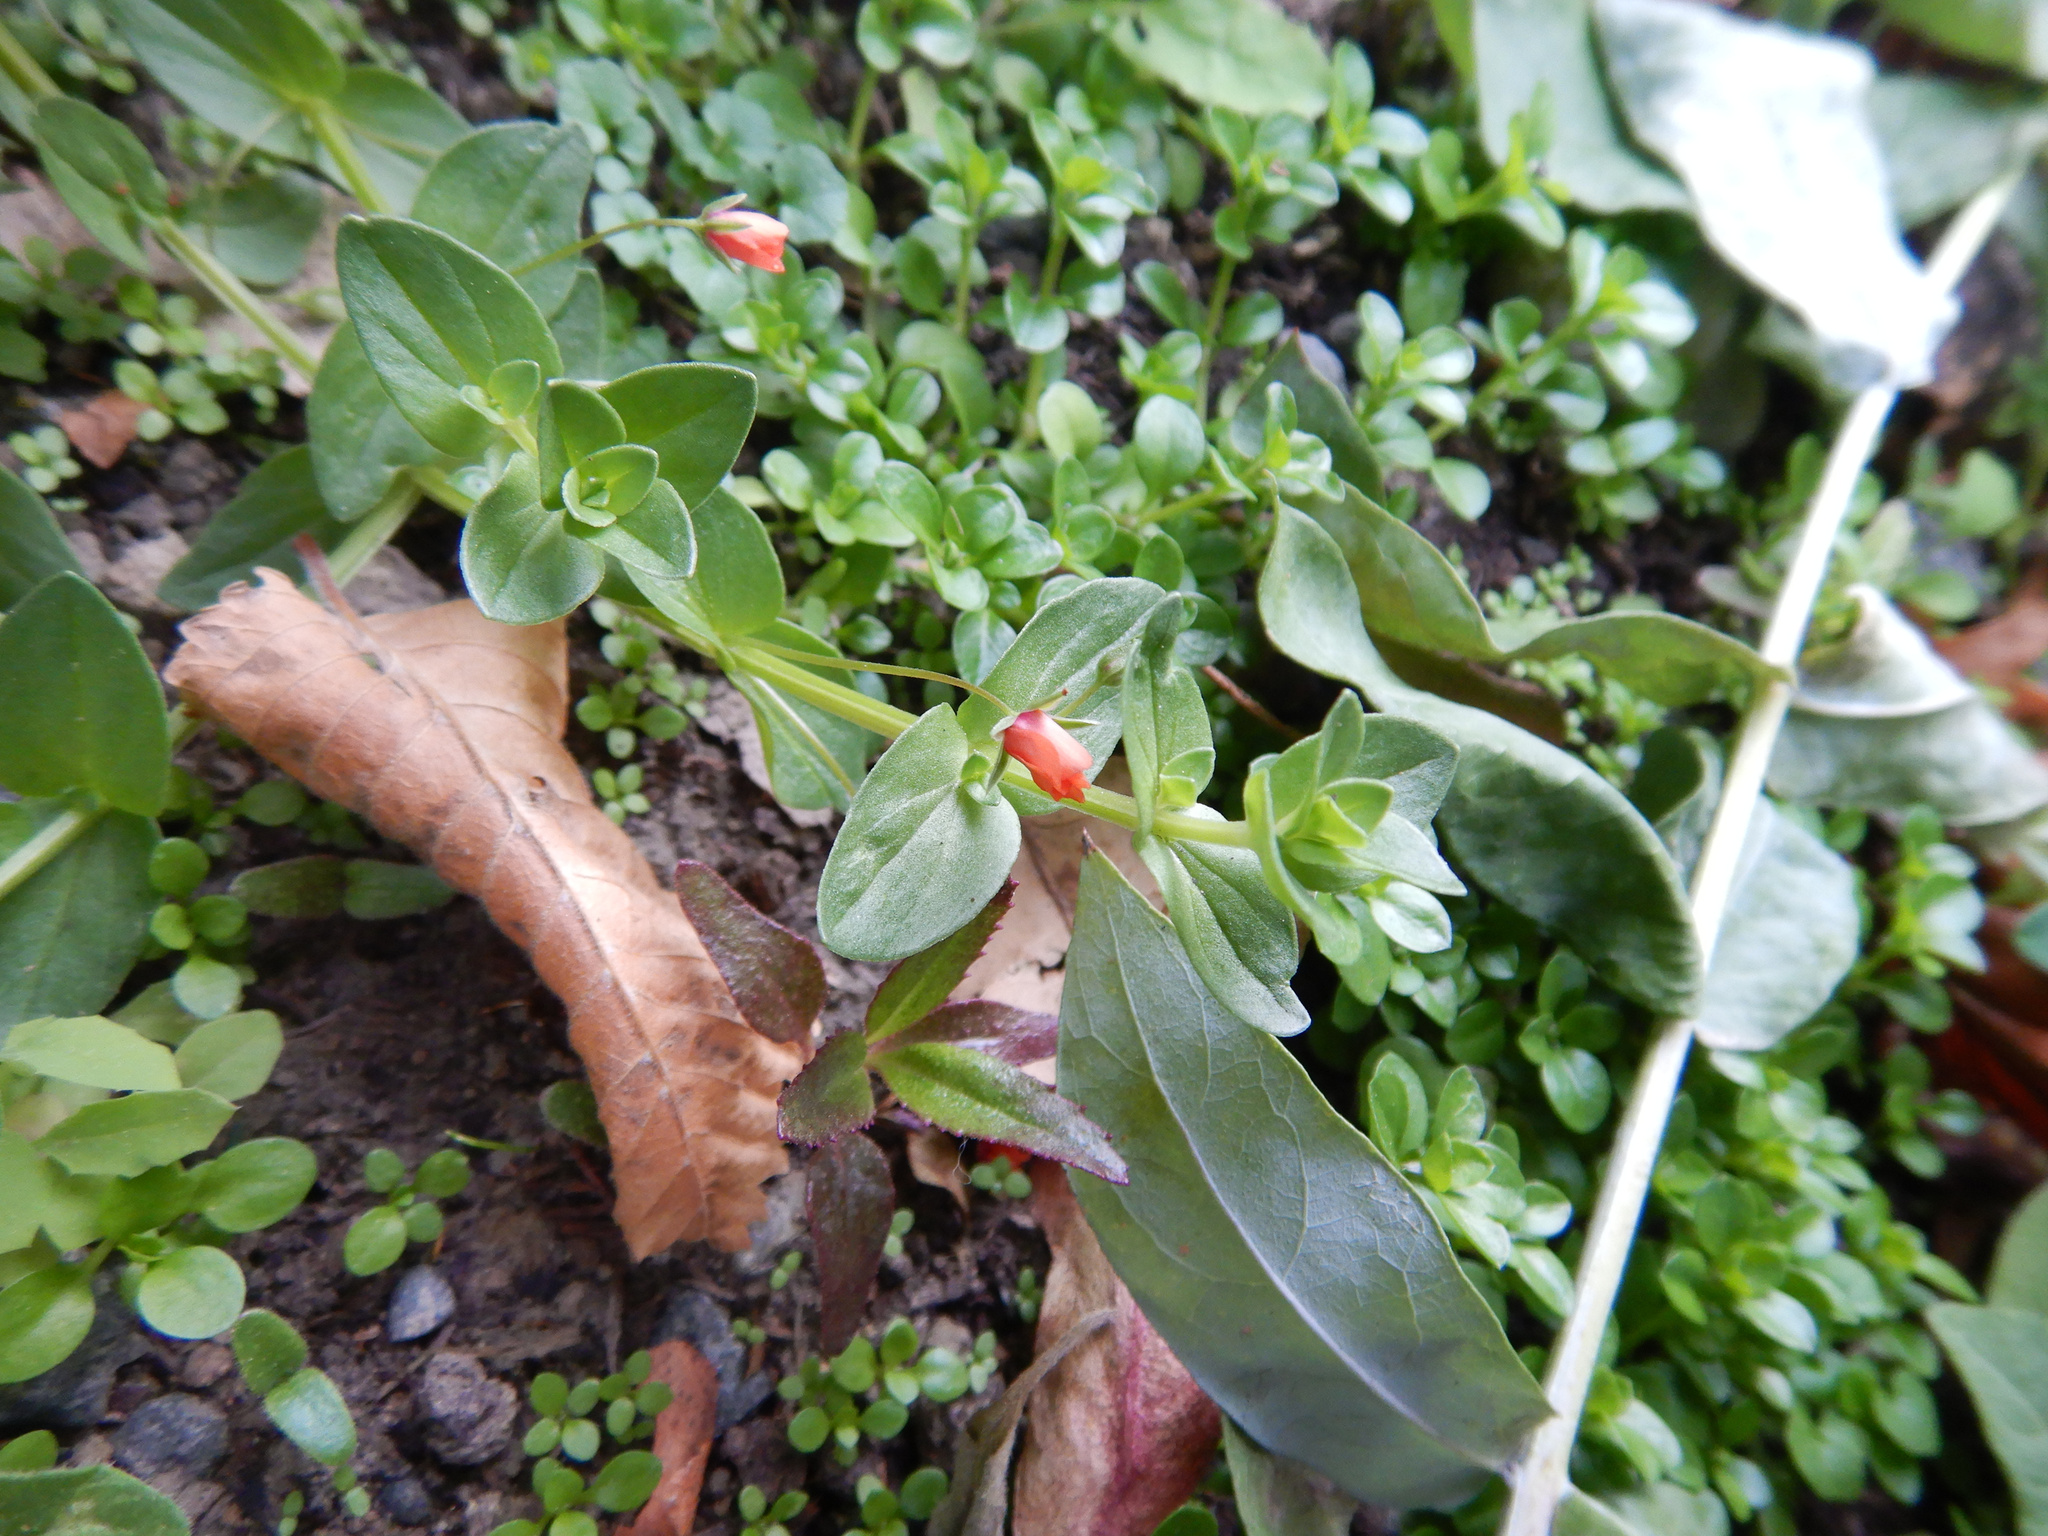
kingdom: Plantae
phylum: Tracheophyta
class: Magnoliopsida
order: Ericales
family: Primulaceae
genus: Lysimachia
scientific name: Lysimachia arvensis
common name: Scarlet pimpernel
